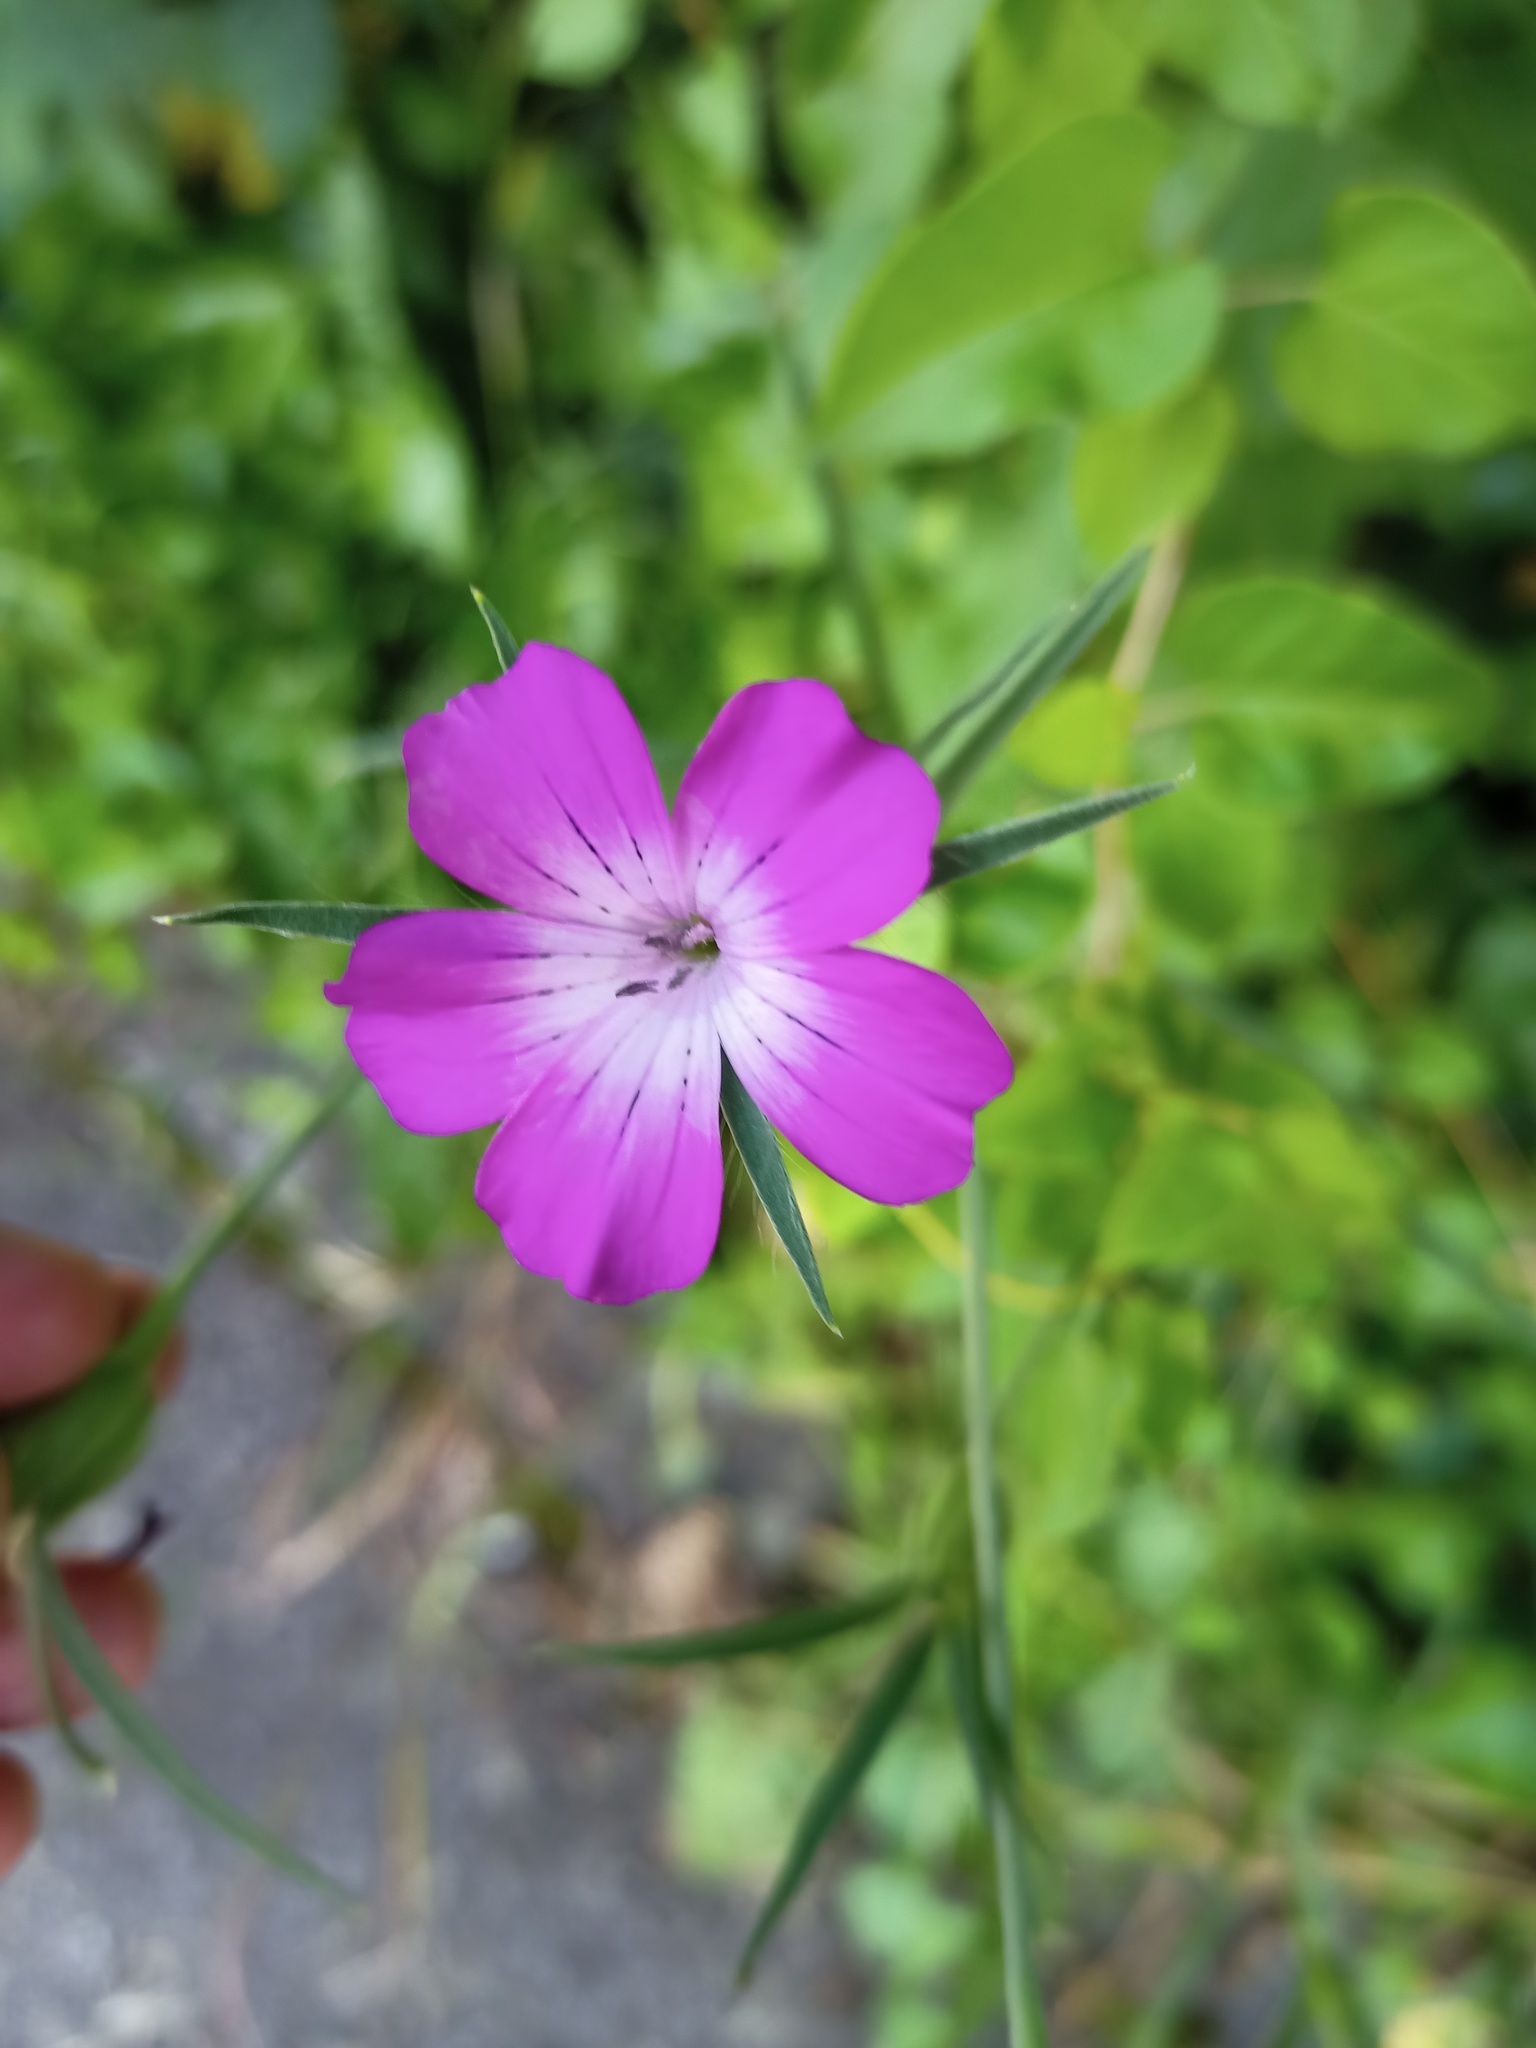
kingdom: Plantae
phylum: Tracheophyta
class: Magnoliopsida
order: Caryophyllales
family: Caryophyllaceae
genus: Agrostemma
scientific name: Agrostemma githago
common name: Common corncockle
